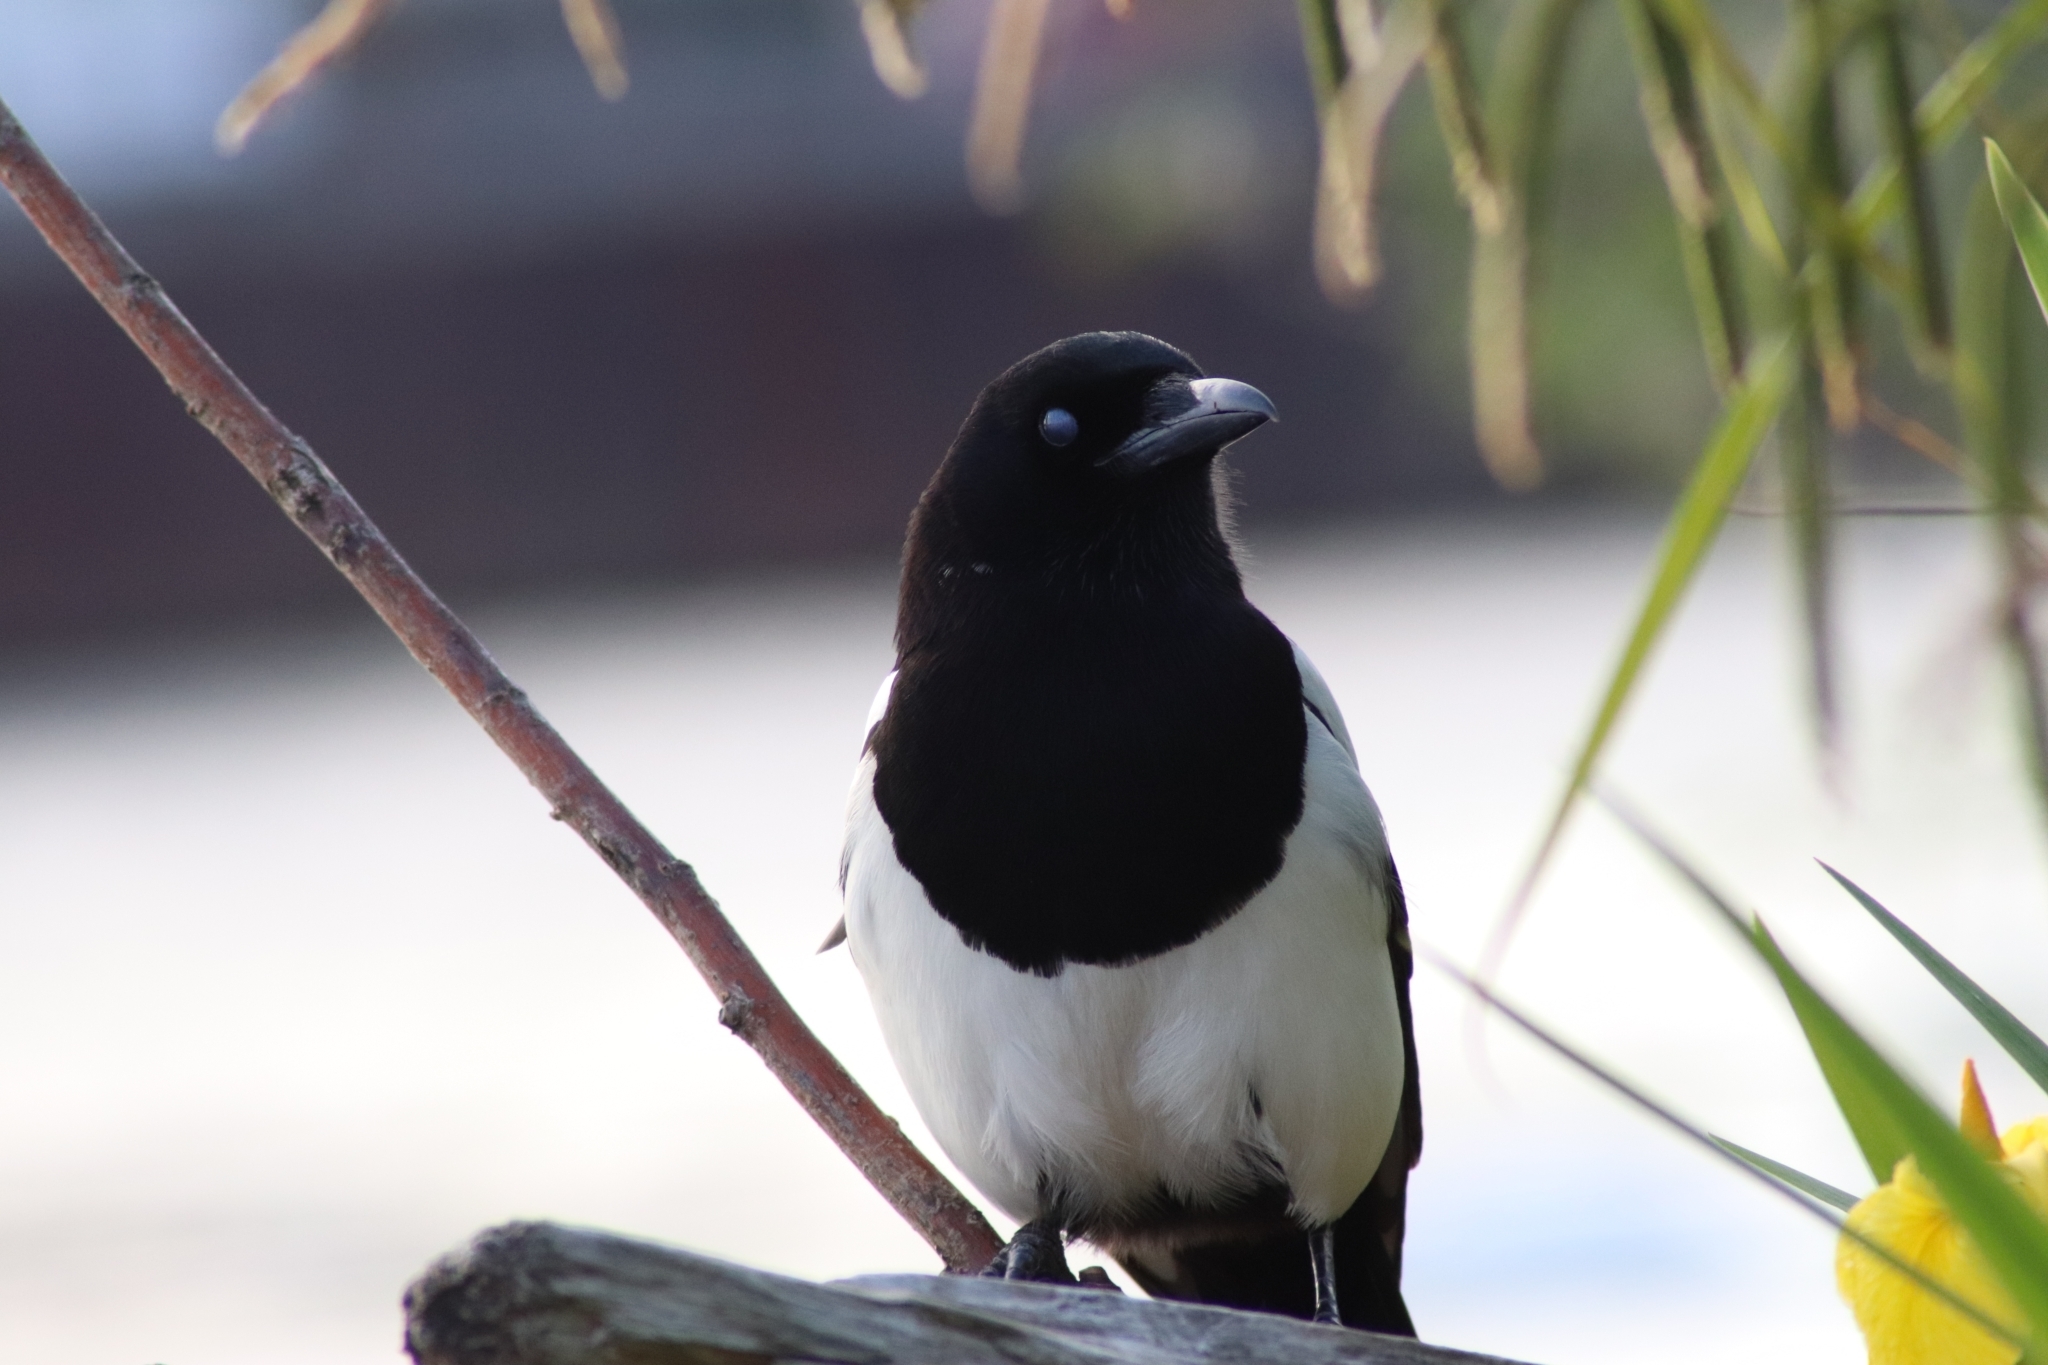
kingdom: Animalia
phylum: Chordata
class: Aves
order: Passeriformes
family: Corvidae
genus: Pica
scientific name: Pica pica
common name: Eurasian magpie
